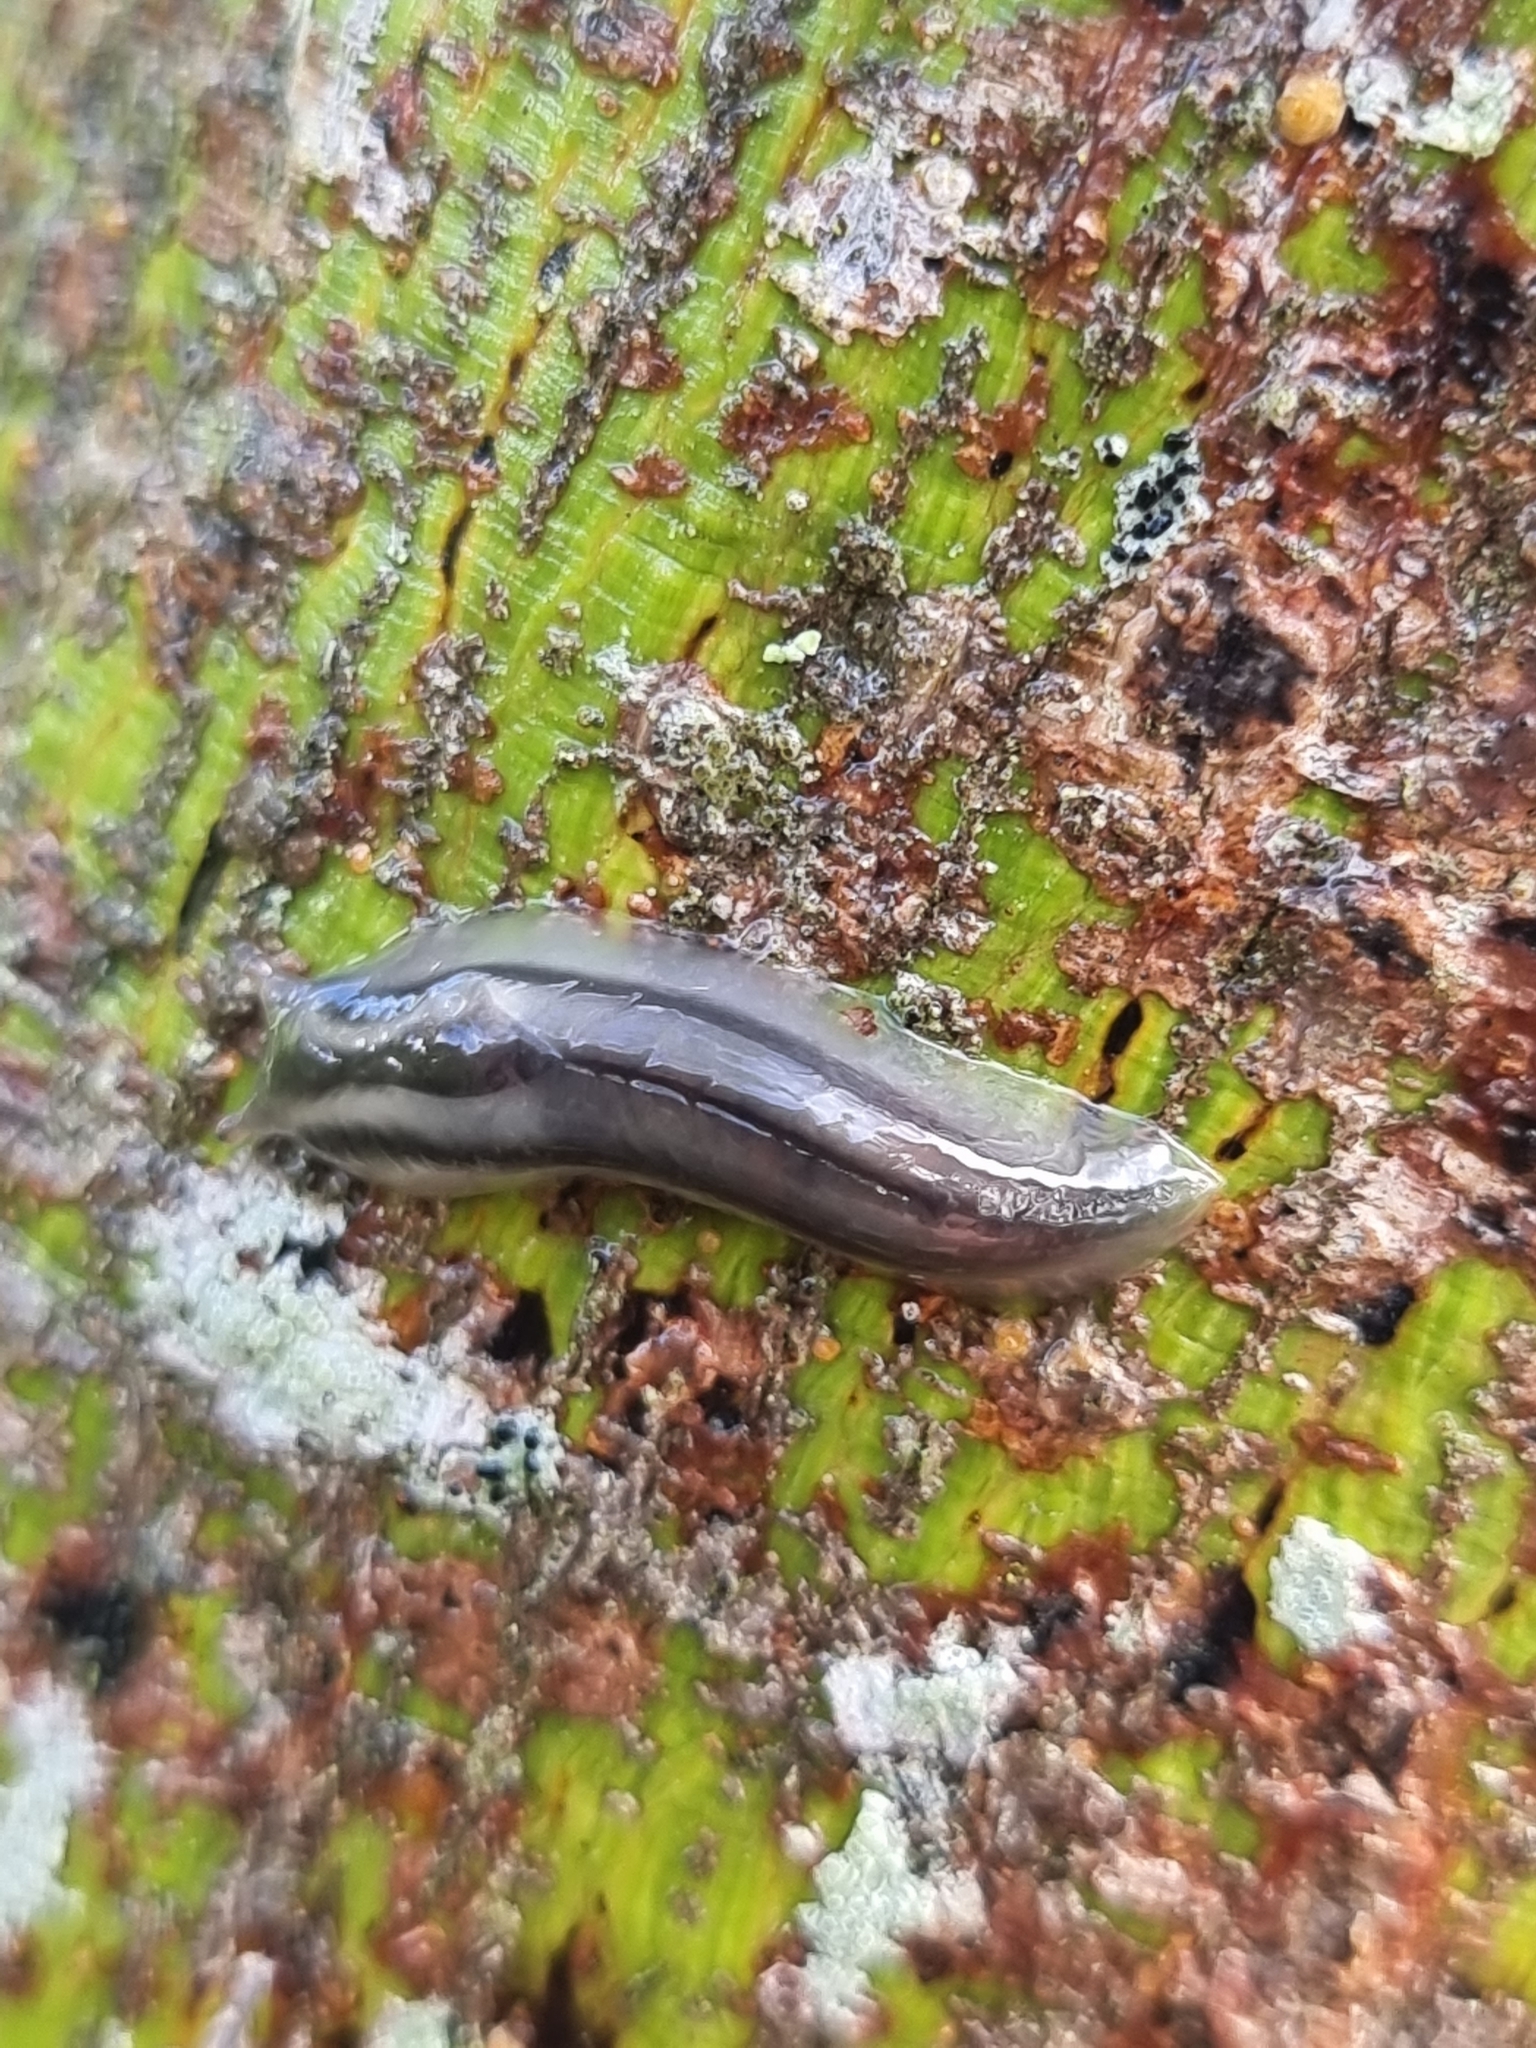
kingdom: Animalia
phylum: Mollusca
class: Gastropoda
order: Stylommatophora
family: Athoracophoridae
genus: Triboniophorus
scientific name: Triboniophorus graeffei
